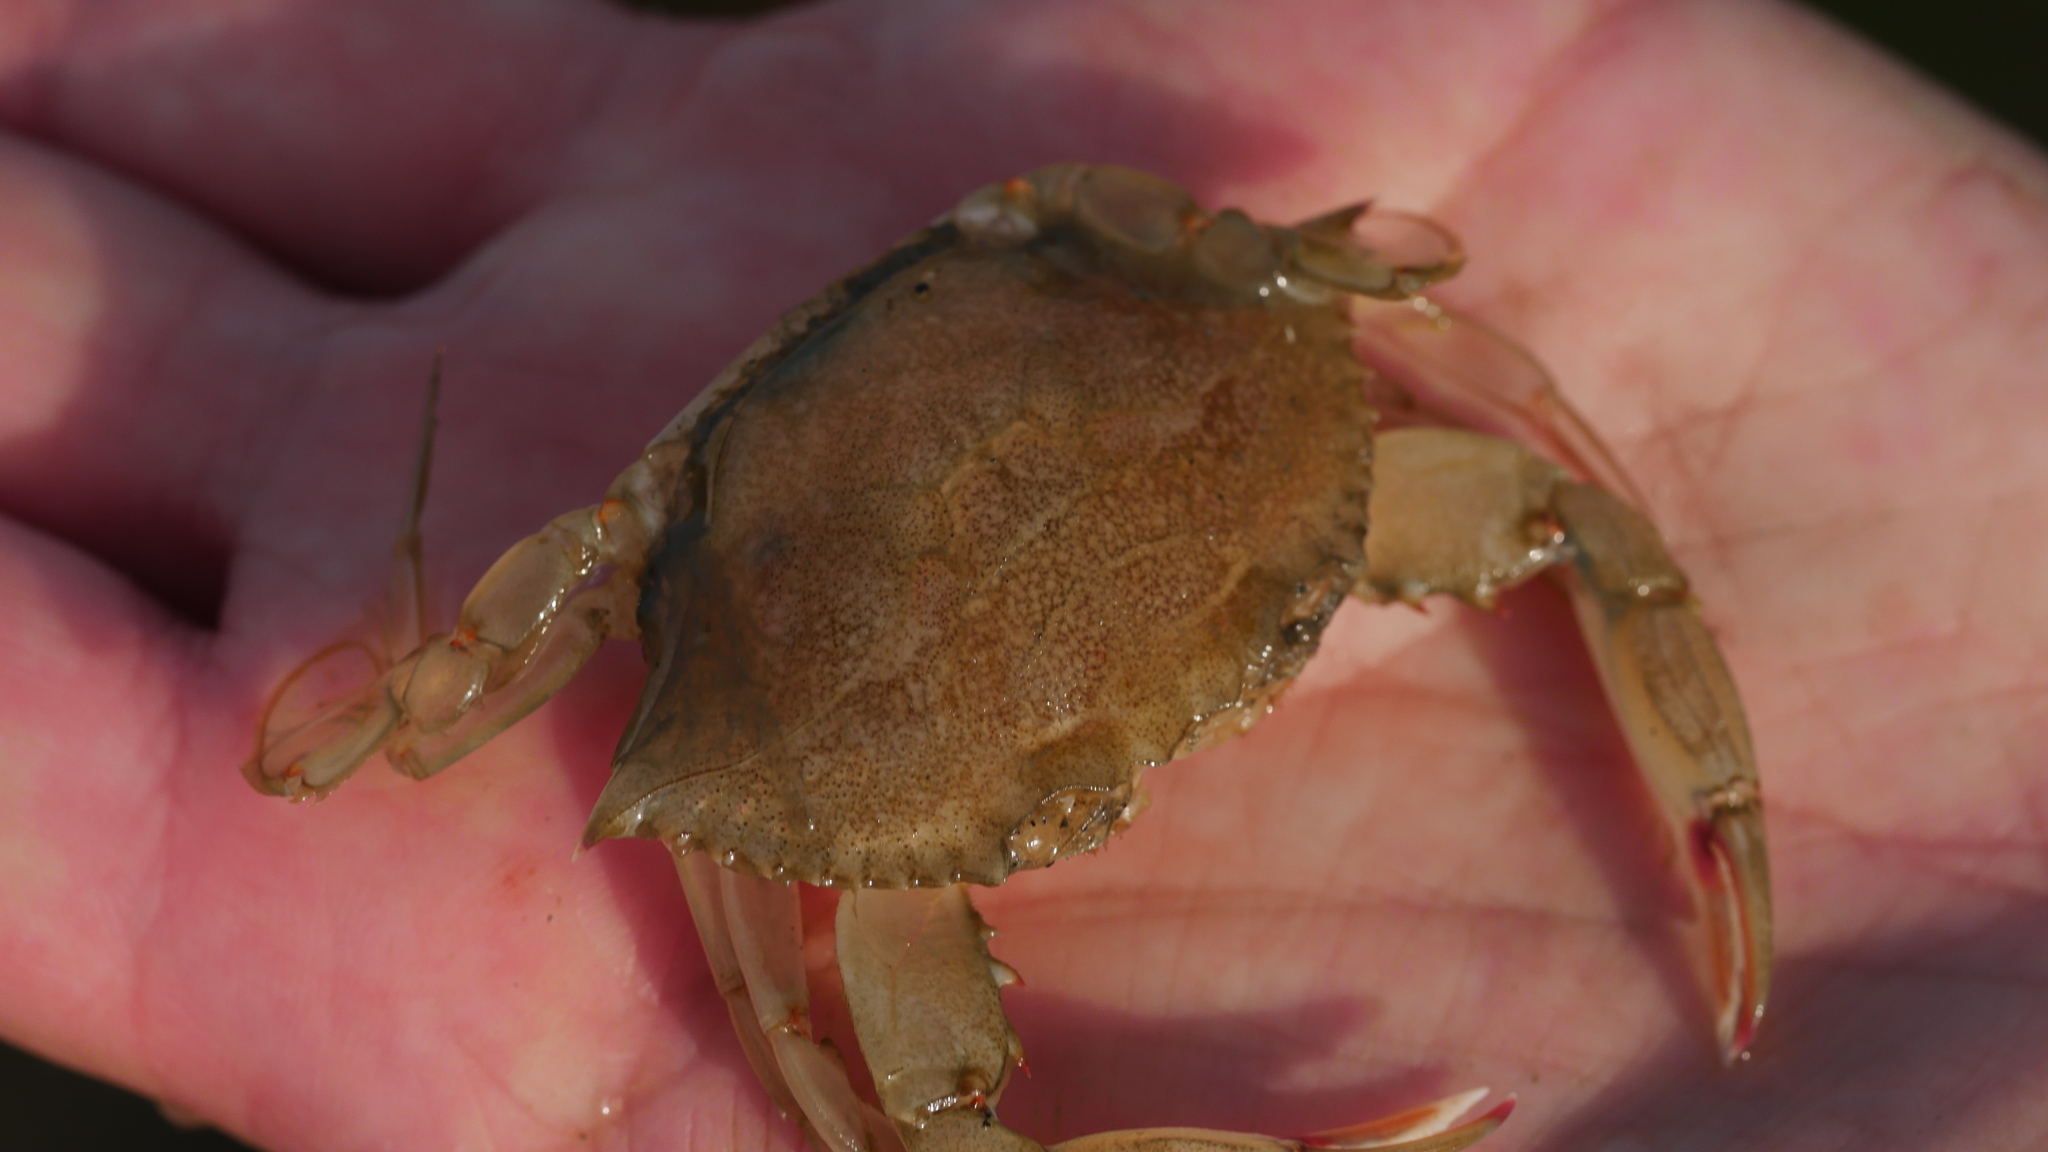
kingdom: Animalia
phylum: Arthropoda
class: Malacostraca
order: Decapoda
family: Portunidae
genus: Callinectes
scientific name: Callinectes sapidus
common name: Blue crab
